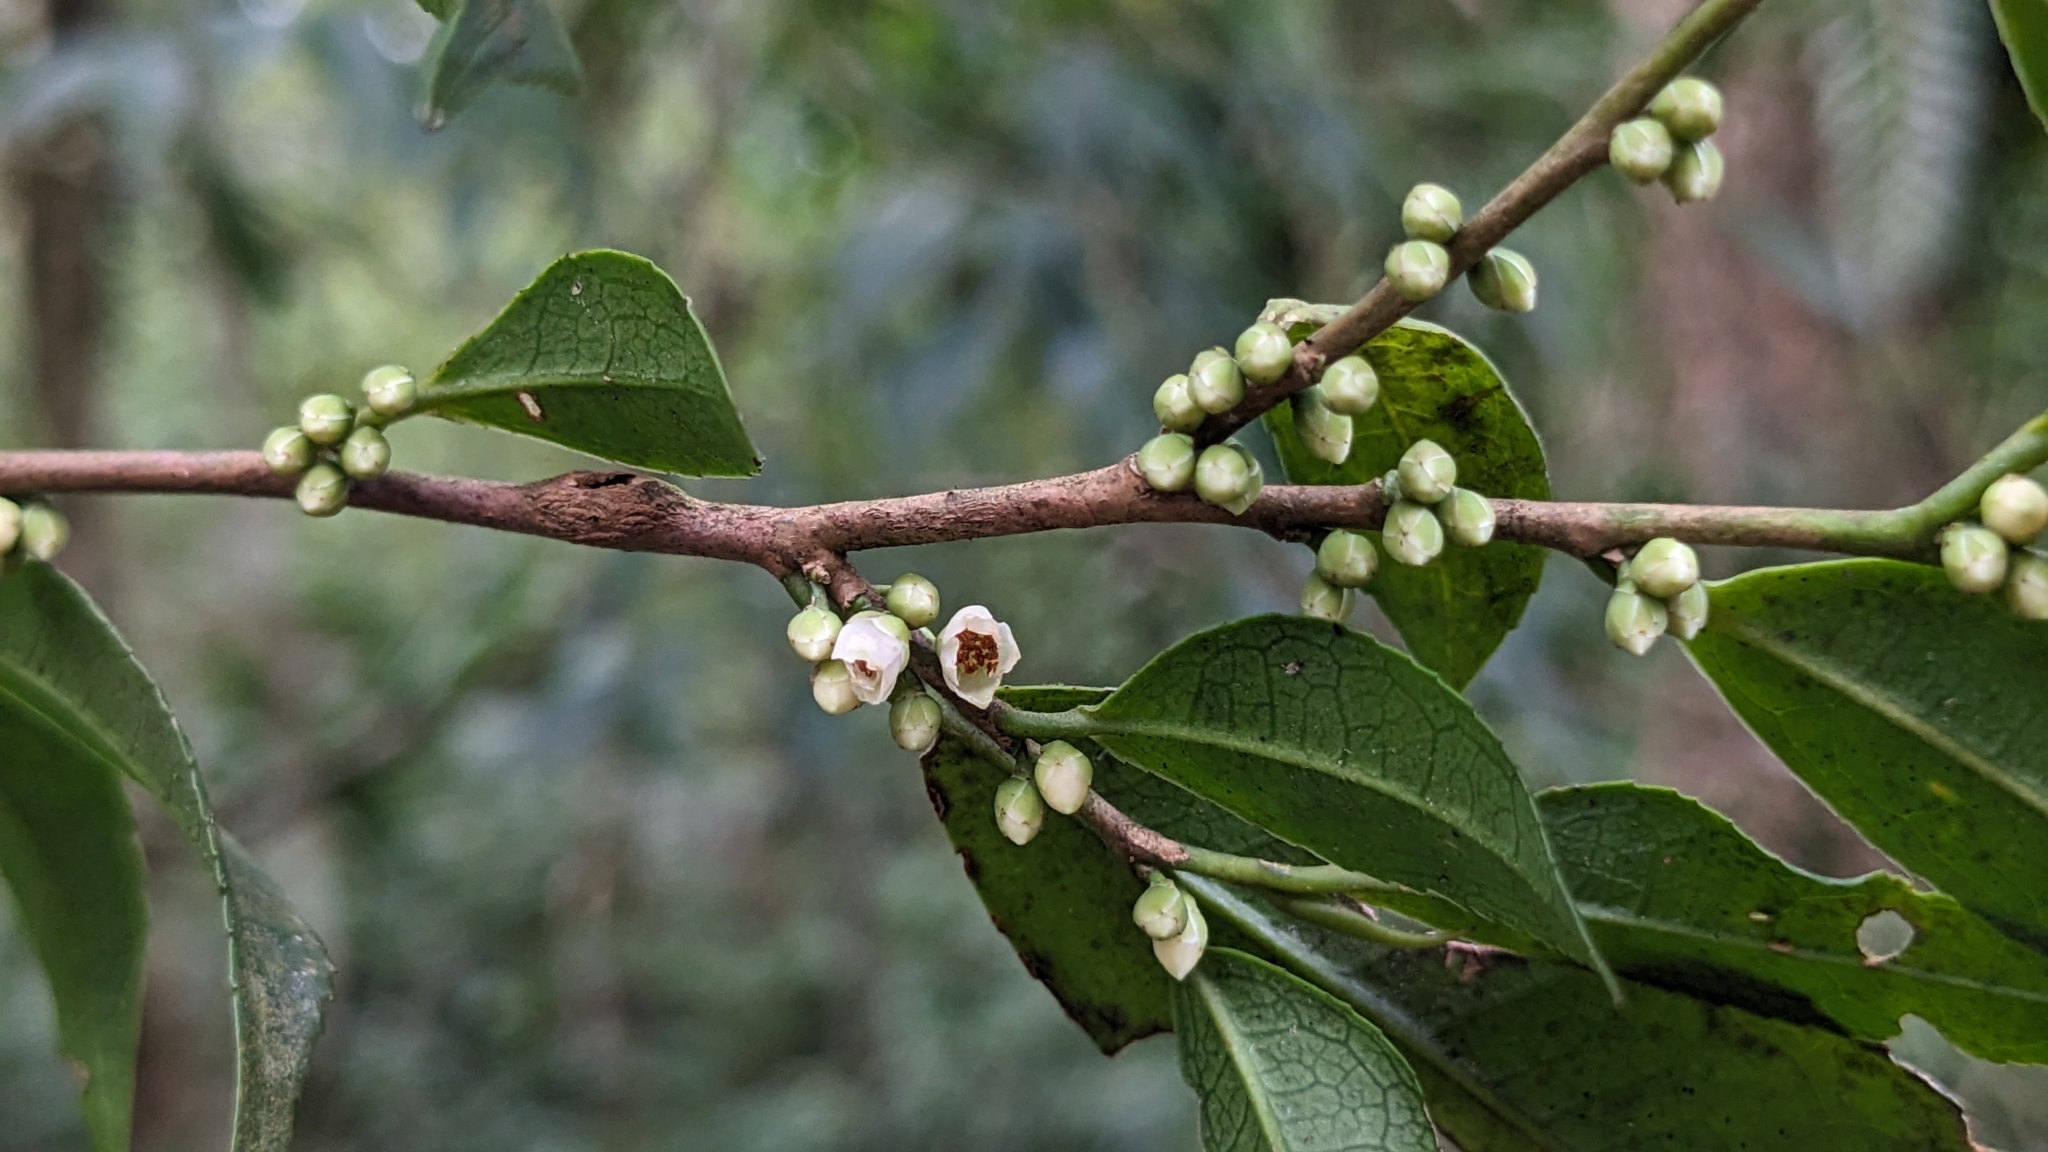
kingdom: Plantae
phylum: Tracheophyta
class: Magnoliopsida
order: Ericales
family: Pentaphylacaceae
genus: Eurya
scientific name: Eurya loquaiana
